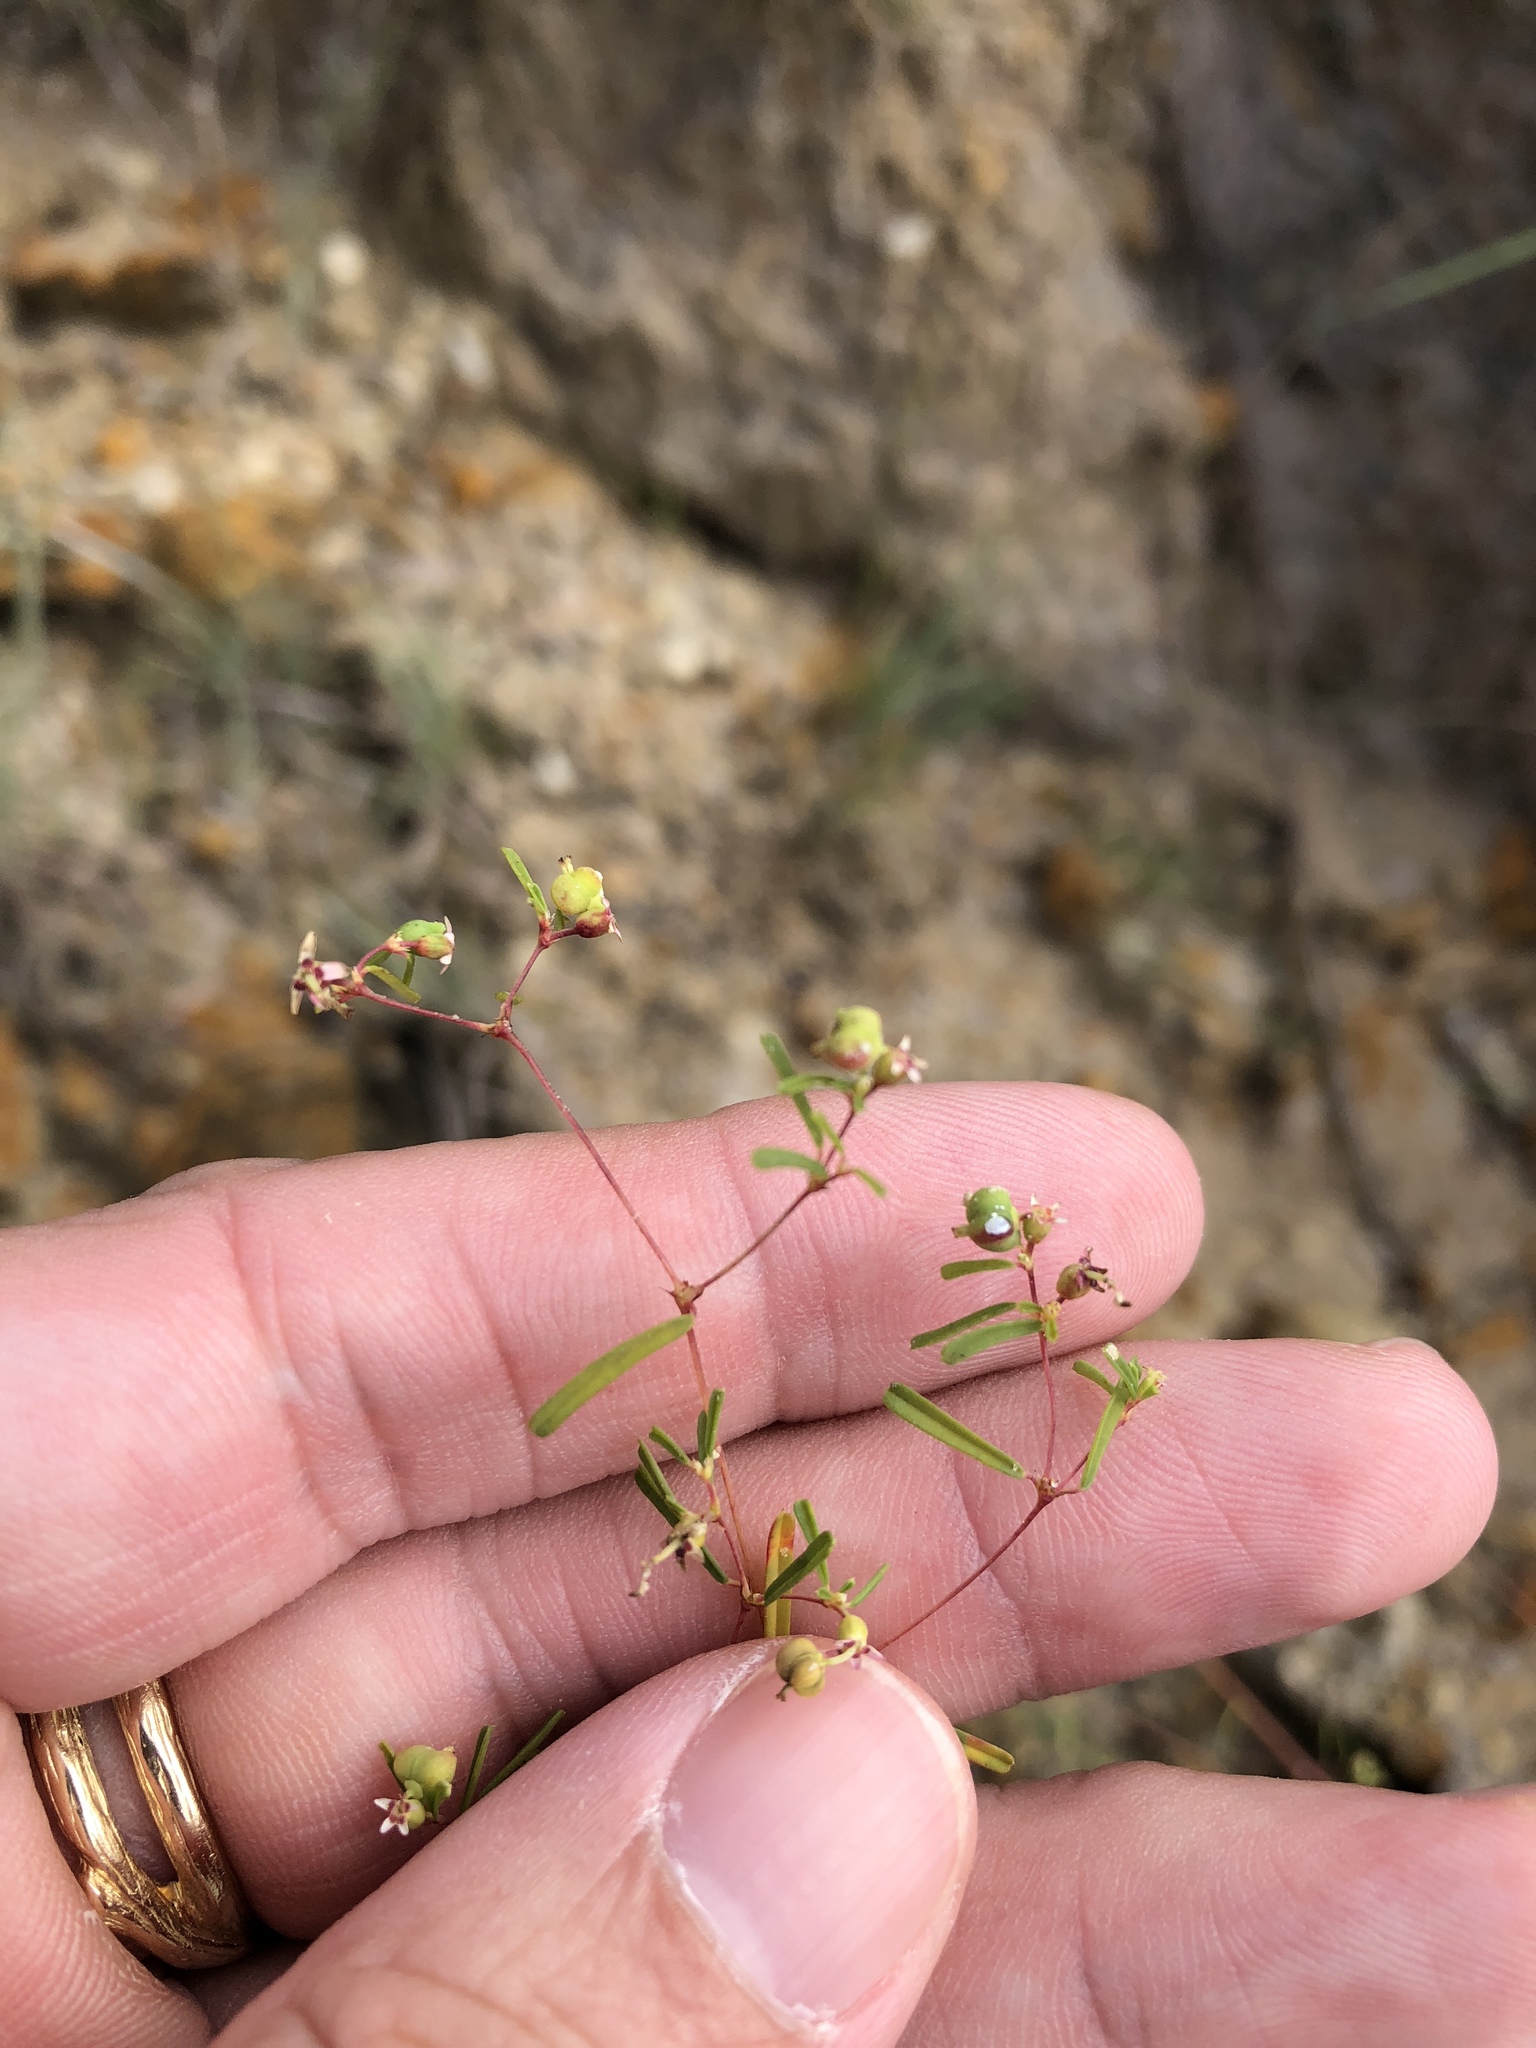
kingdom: Plantae
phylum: Tracheophyta
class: Magnoliopsida
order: Malpighiales
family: Euphorbiaceae
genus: Euphorbia
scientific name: Euphorbia missurica
